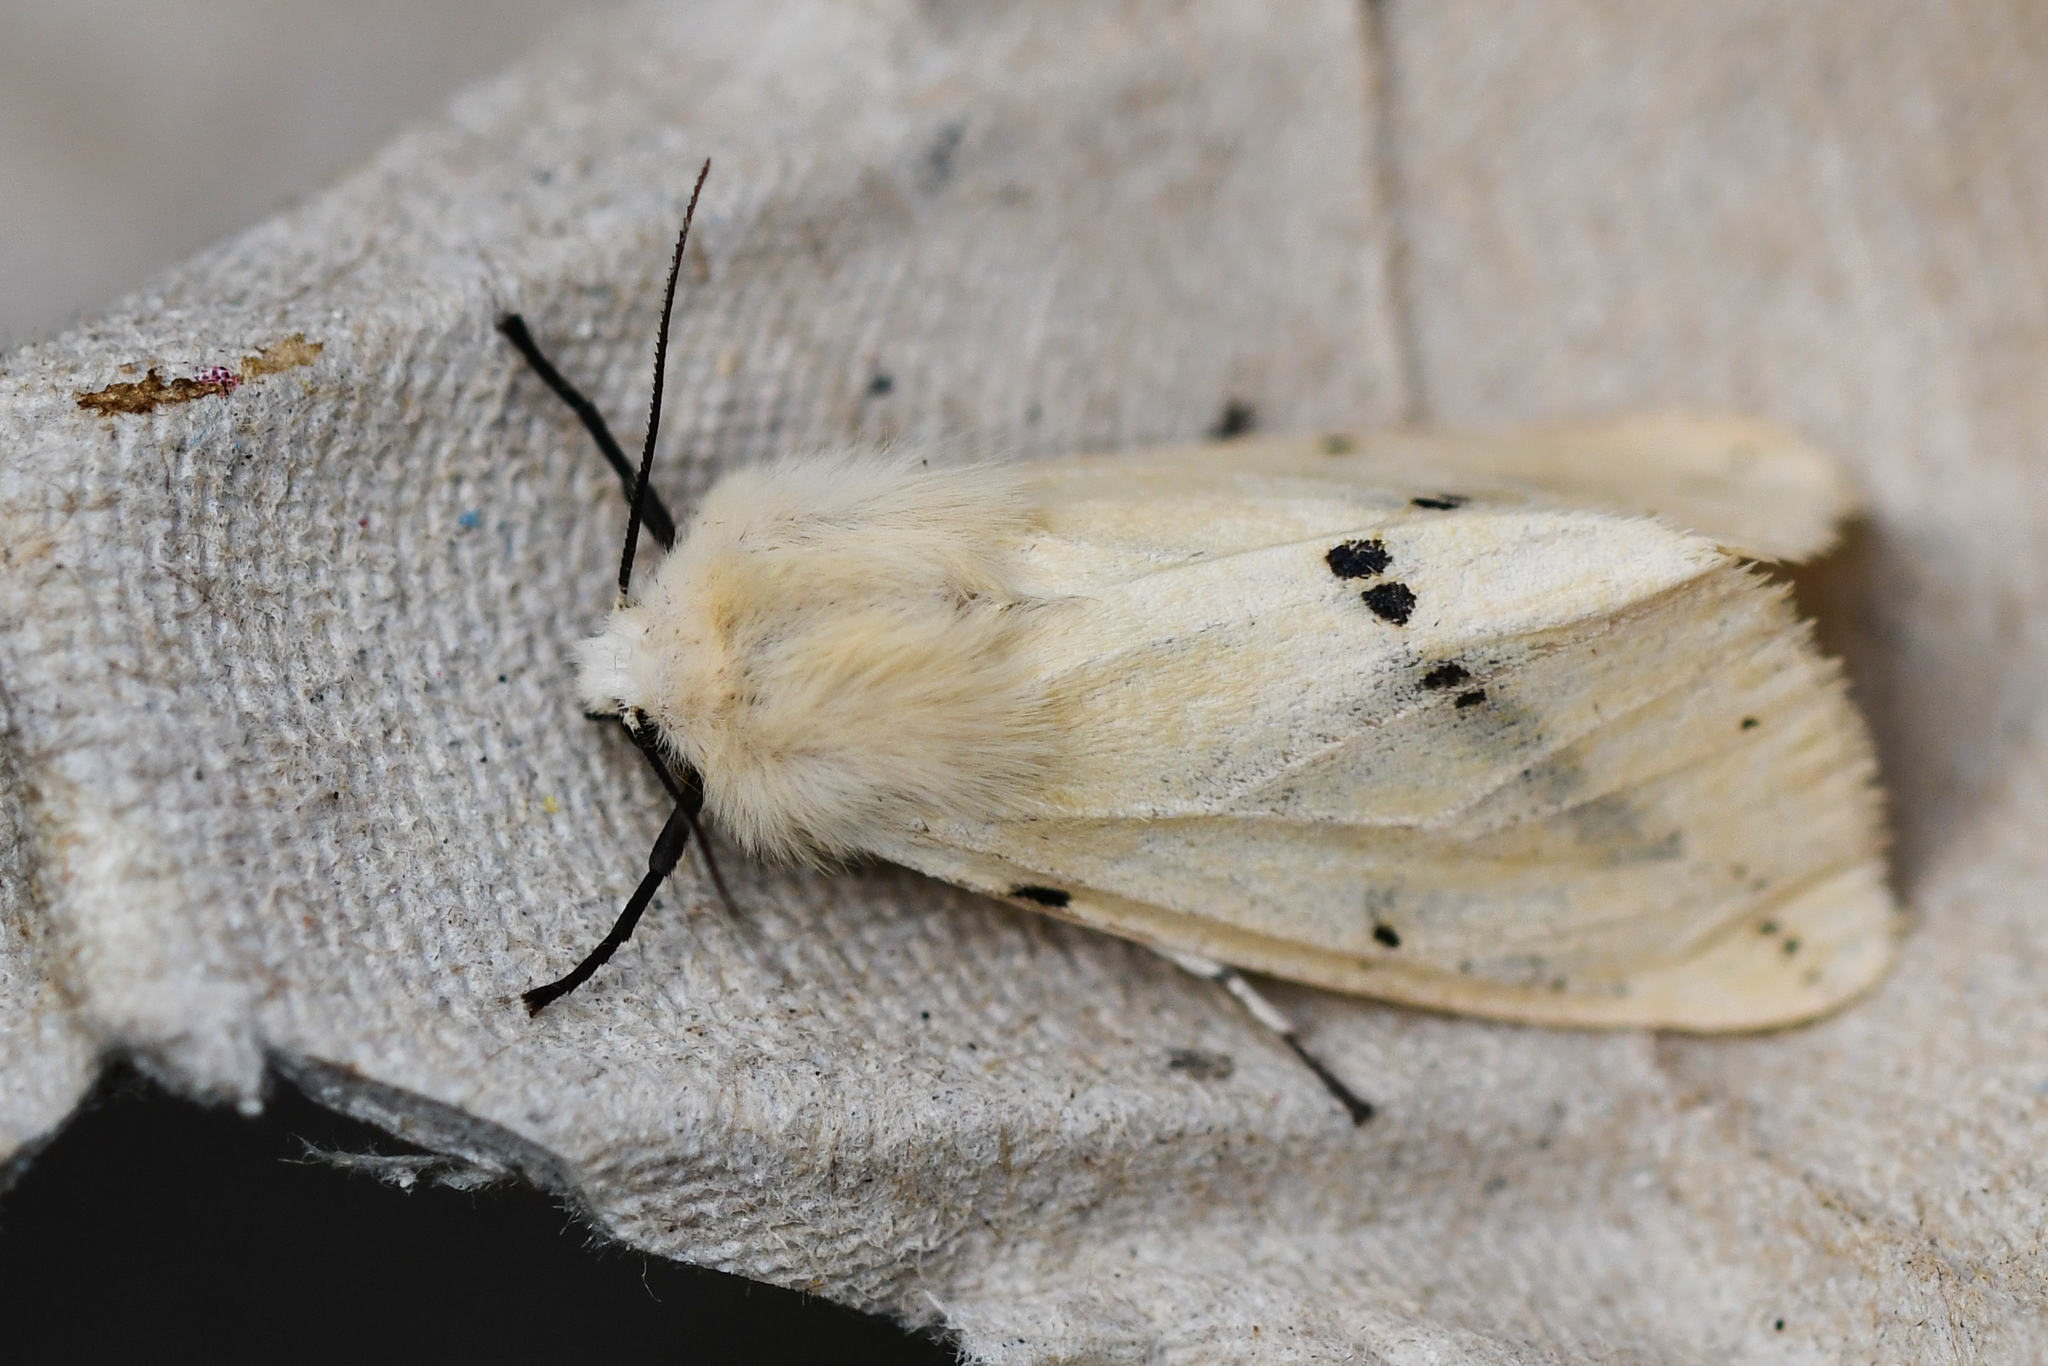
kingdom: Animalia
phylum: Arthropoda
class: Insecta
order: Lepidoptera
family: Erebidae
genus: Spilarctia
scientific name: Spilarctia lutea
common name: Buff ermine
